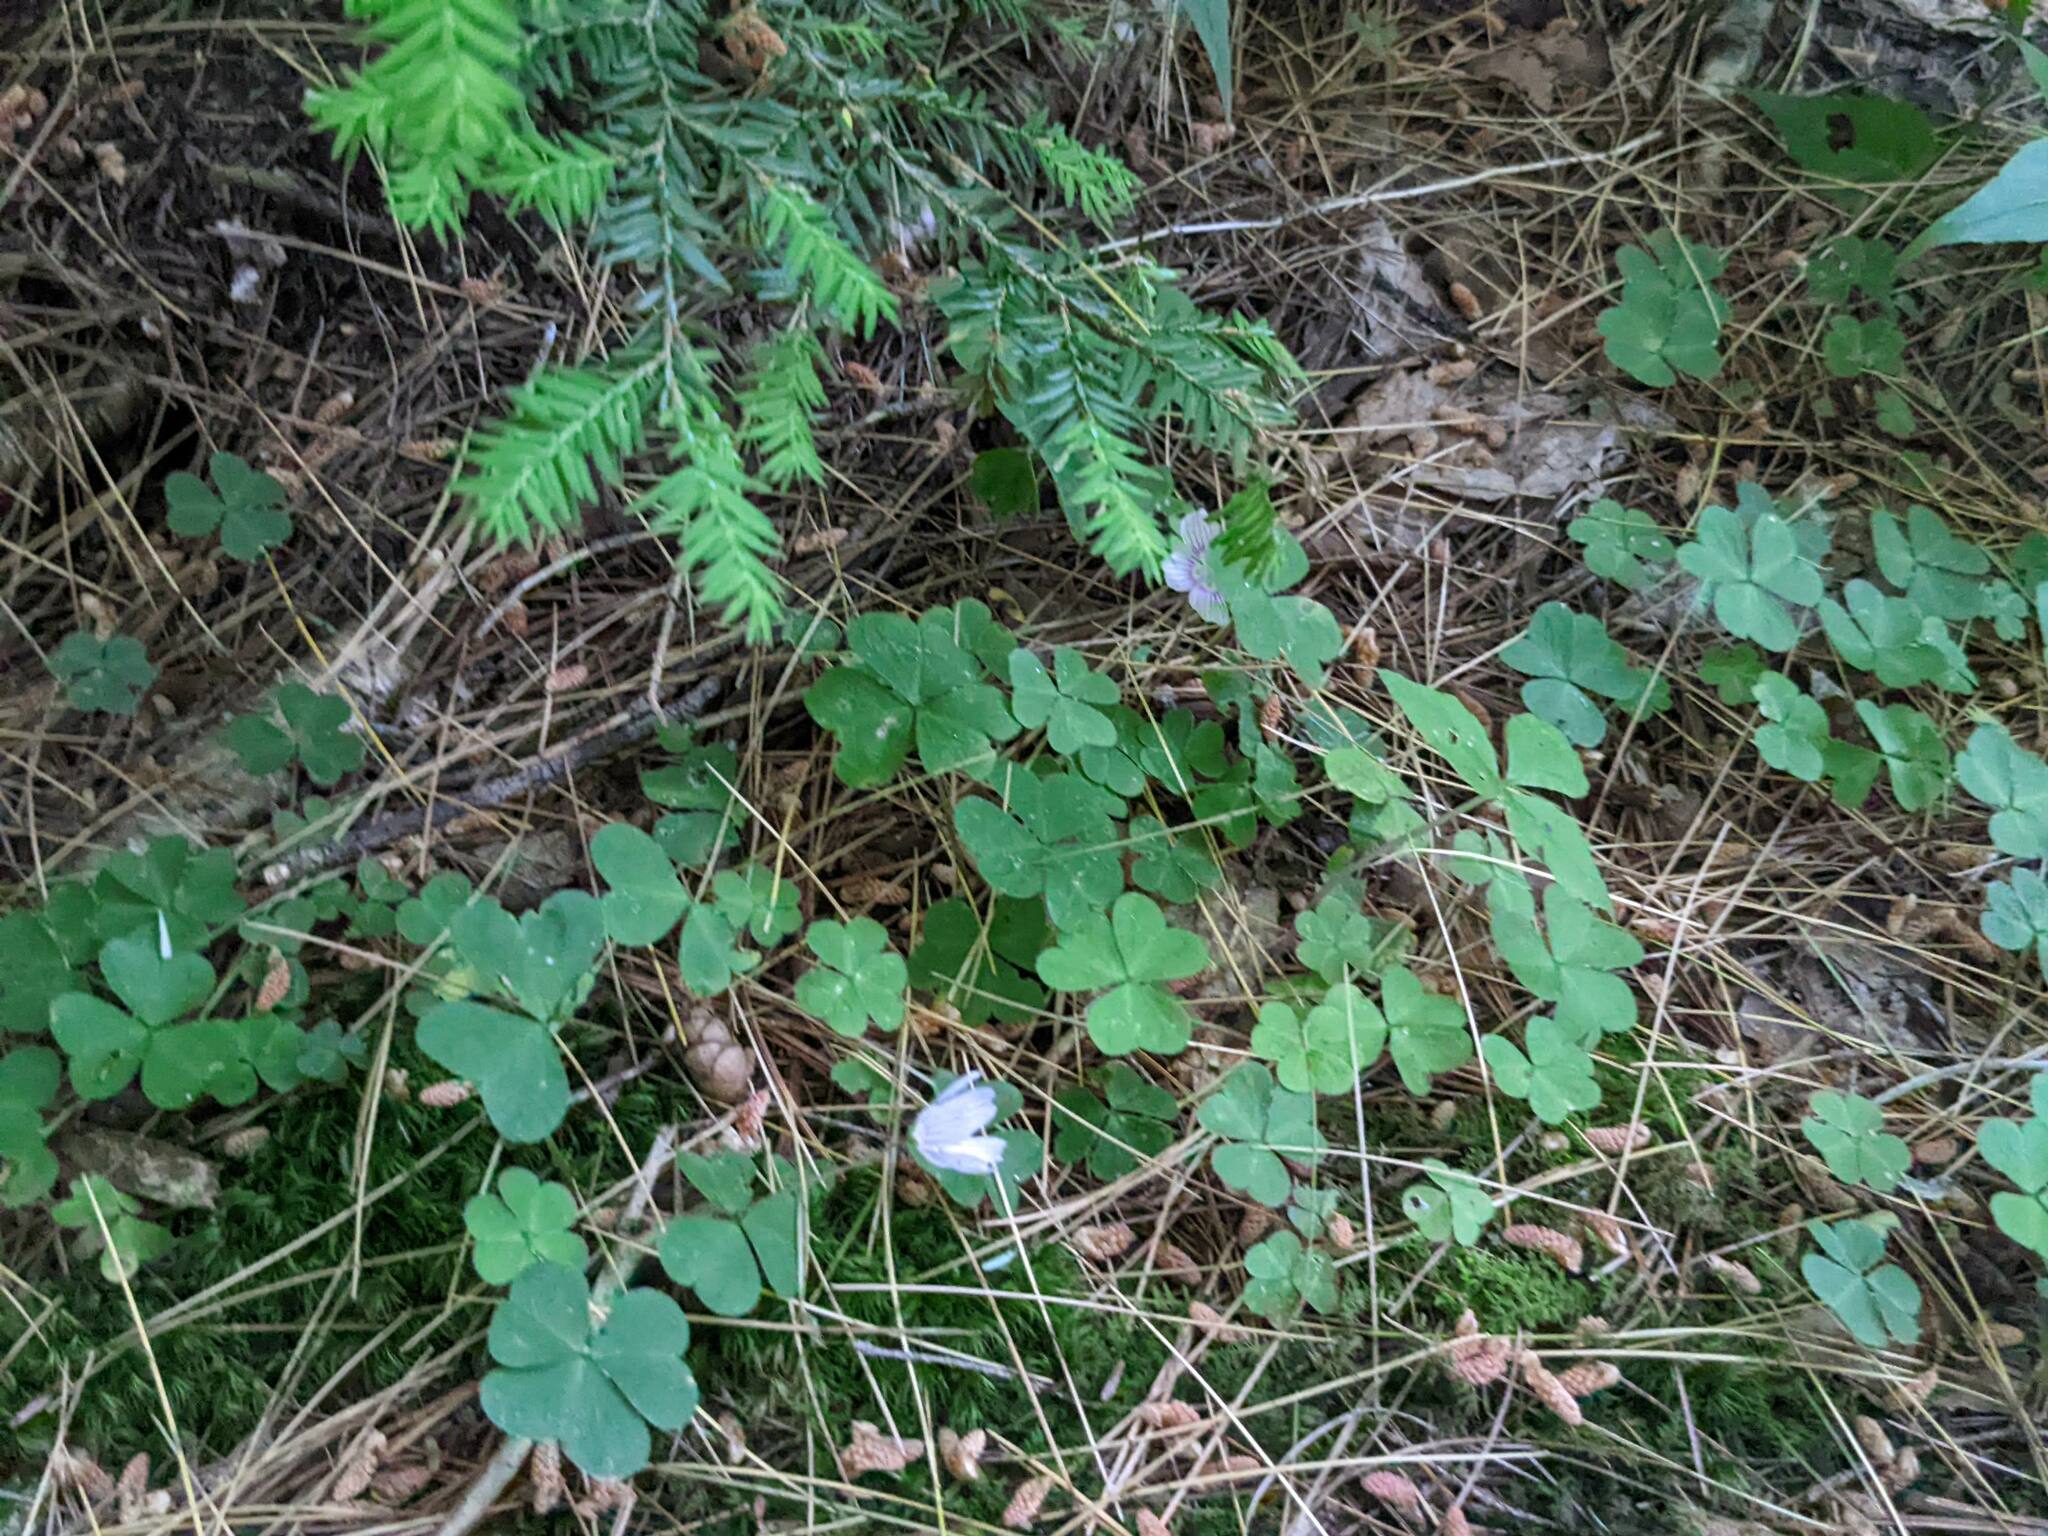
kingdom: Plantae
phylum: Tracheophyta
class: Magnoliopsida
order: Oxalidales
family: Oxalidaceae
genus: Oxalis
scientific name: Oxalis montana
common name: American wood-sorrel
